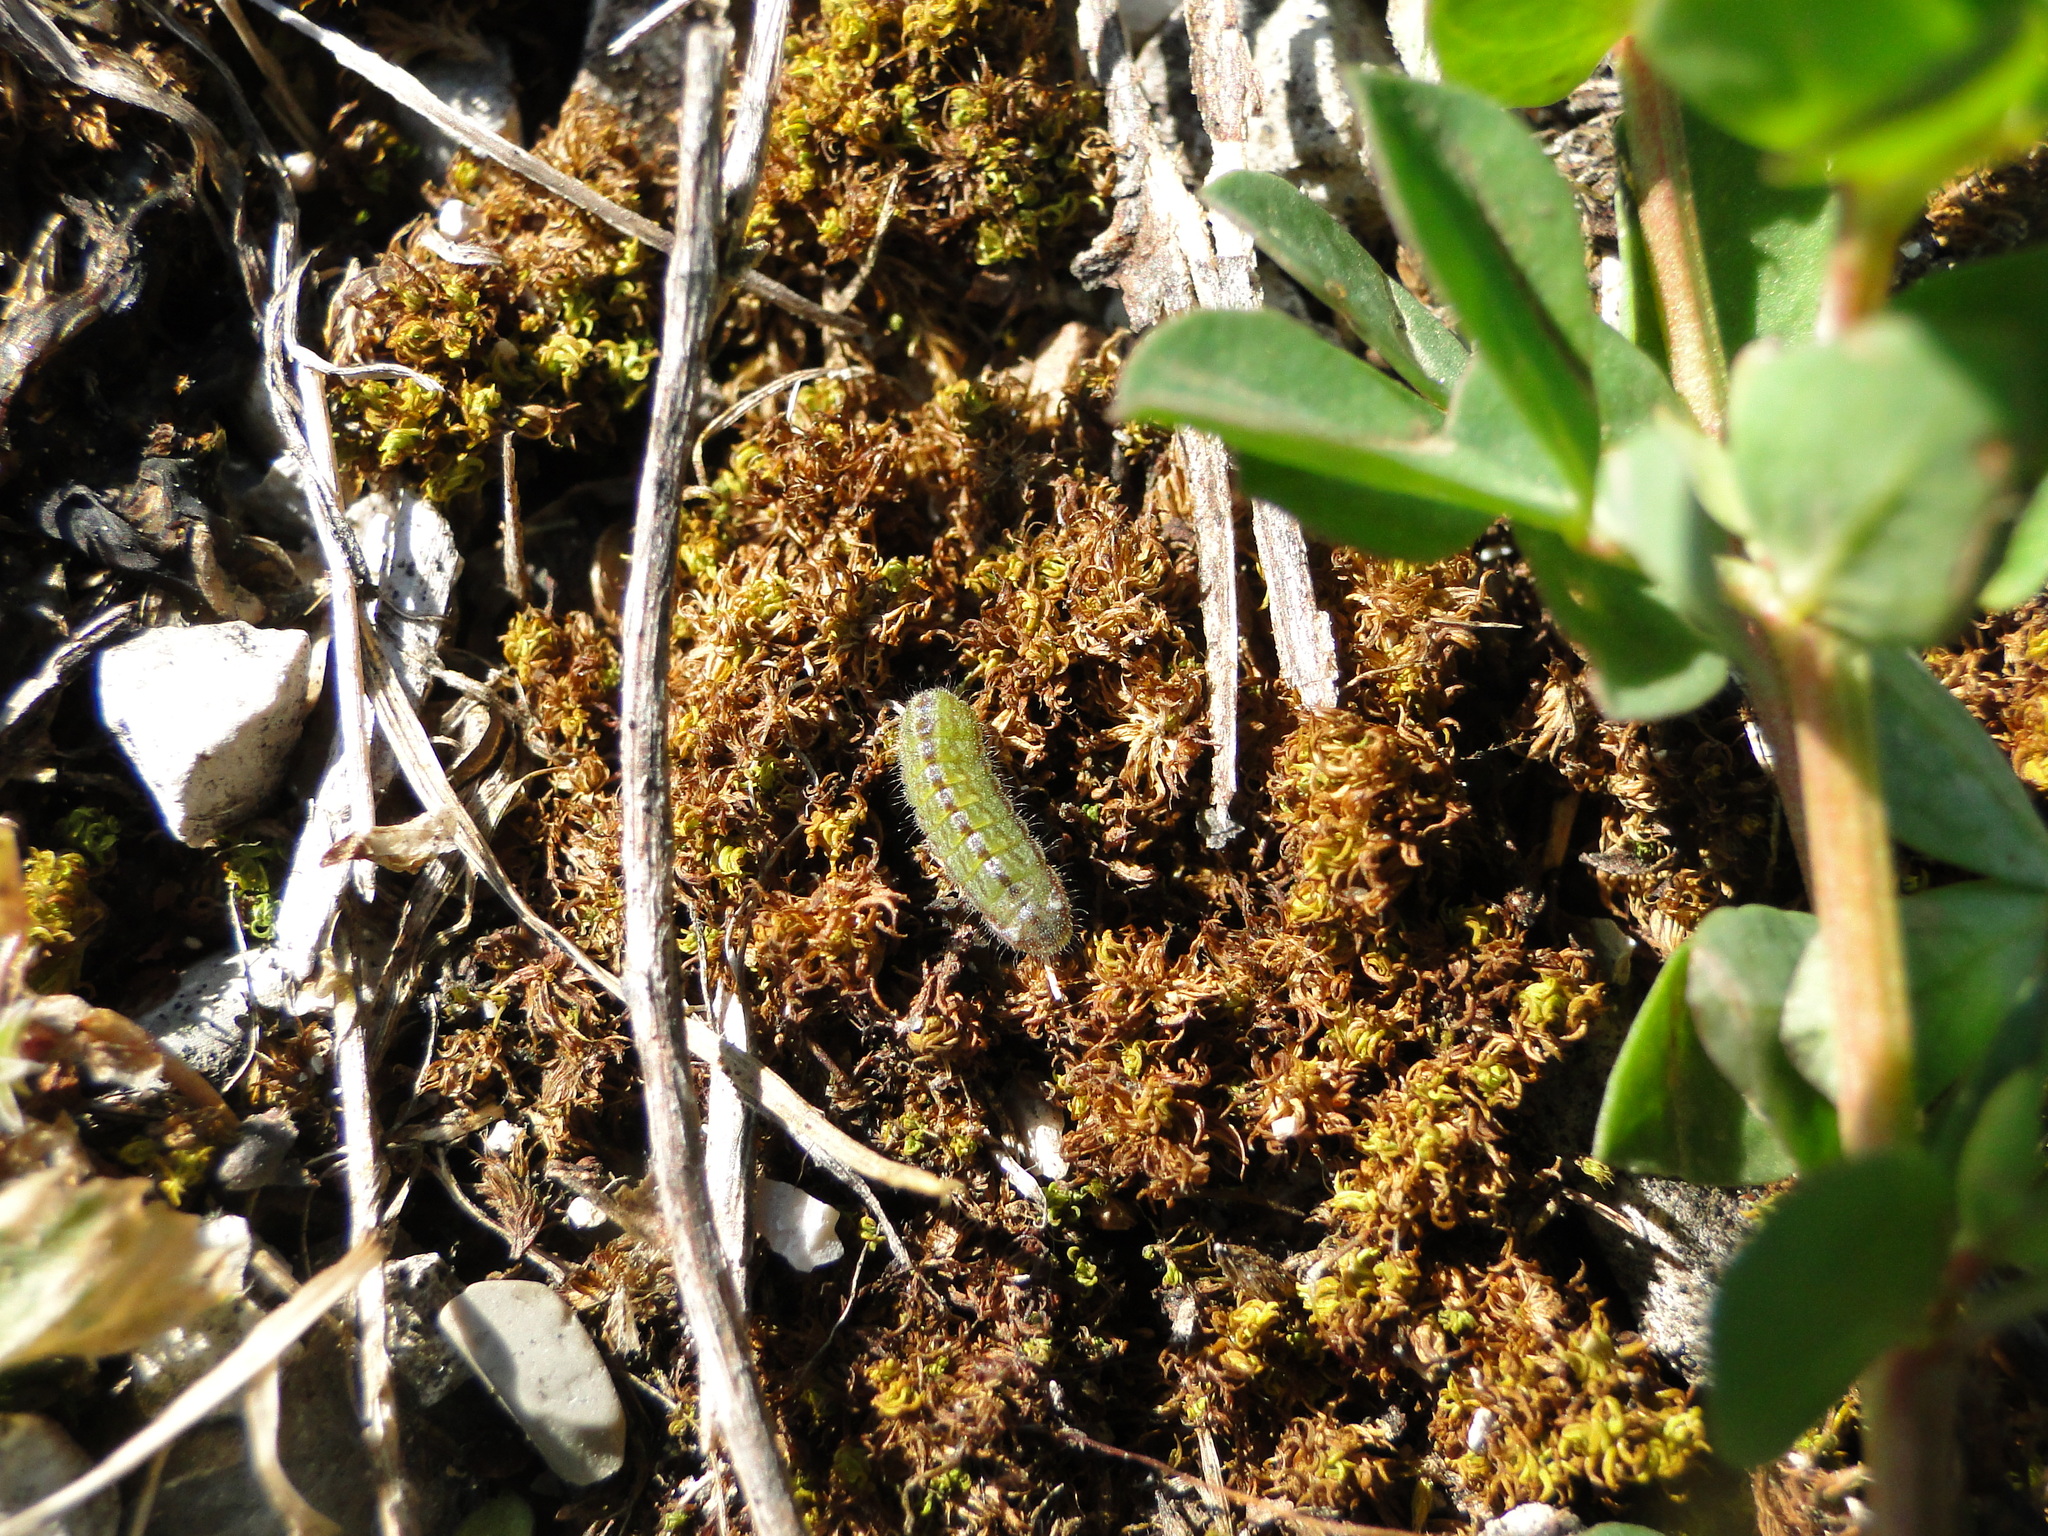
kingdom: Animalia
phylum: Arthropoda
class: Insecta
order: Lepidoptera
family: Lycaenidae
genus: Lycaeides
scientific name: Lycaeides idas
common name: Northern blue
